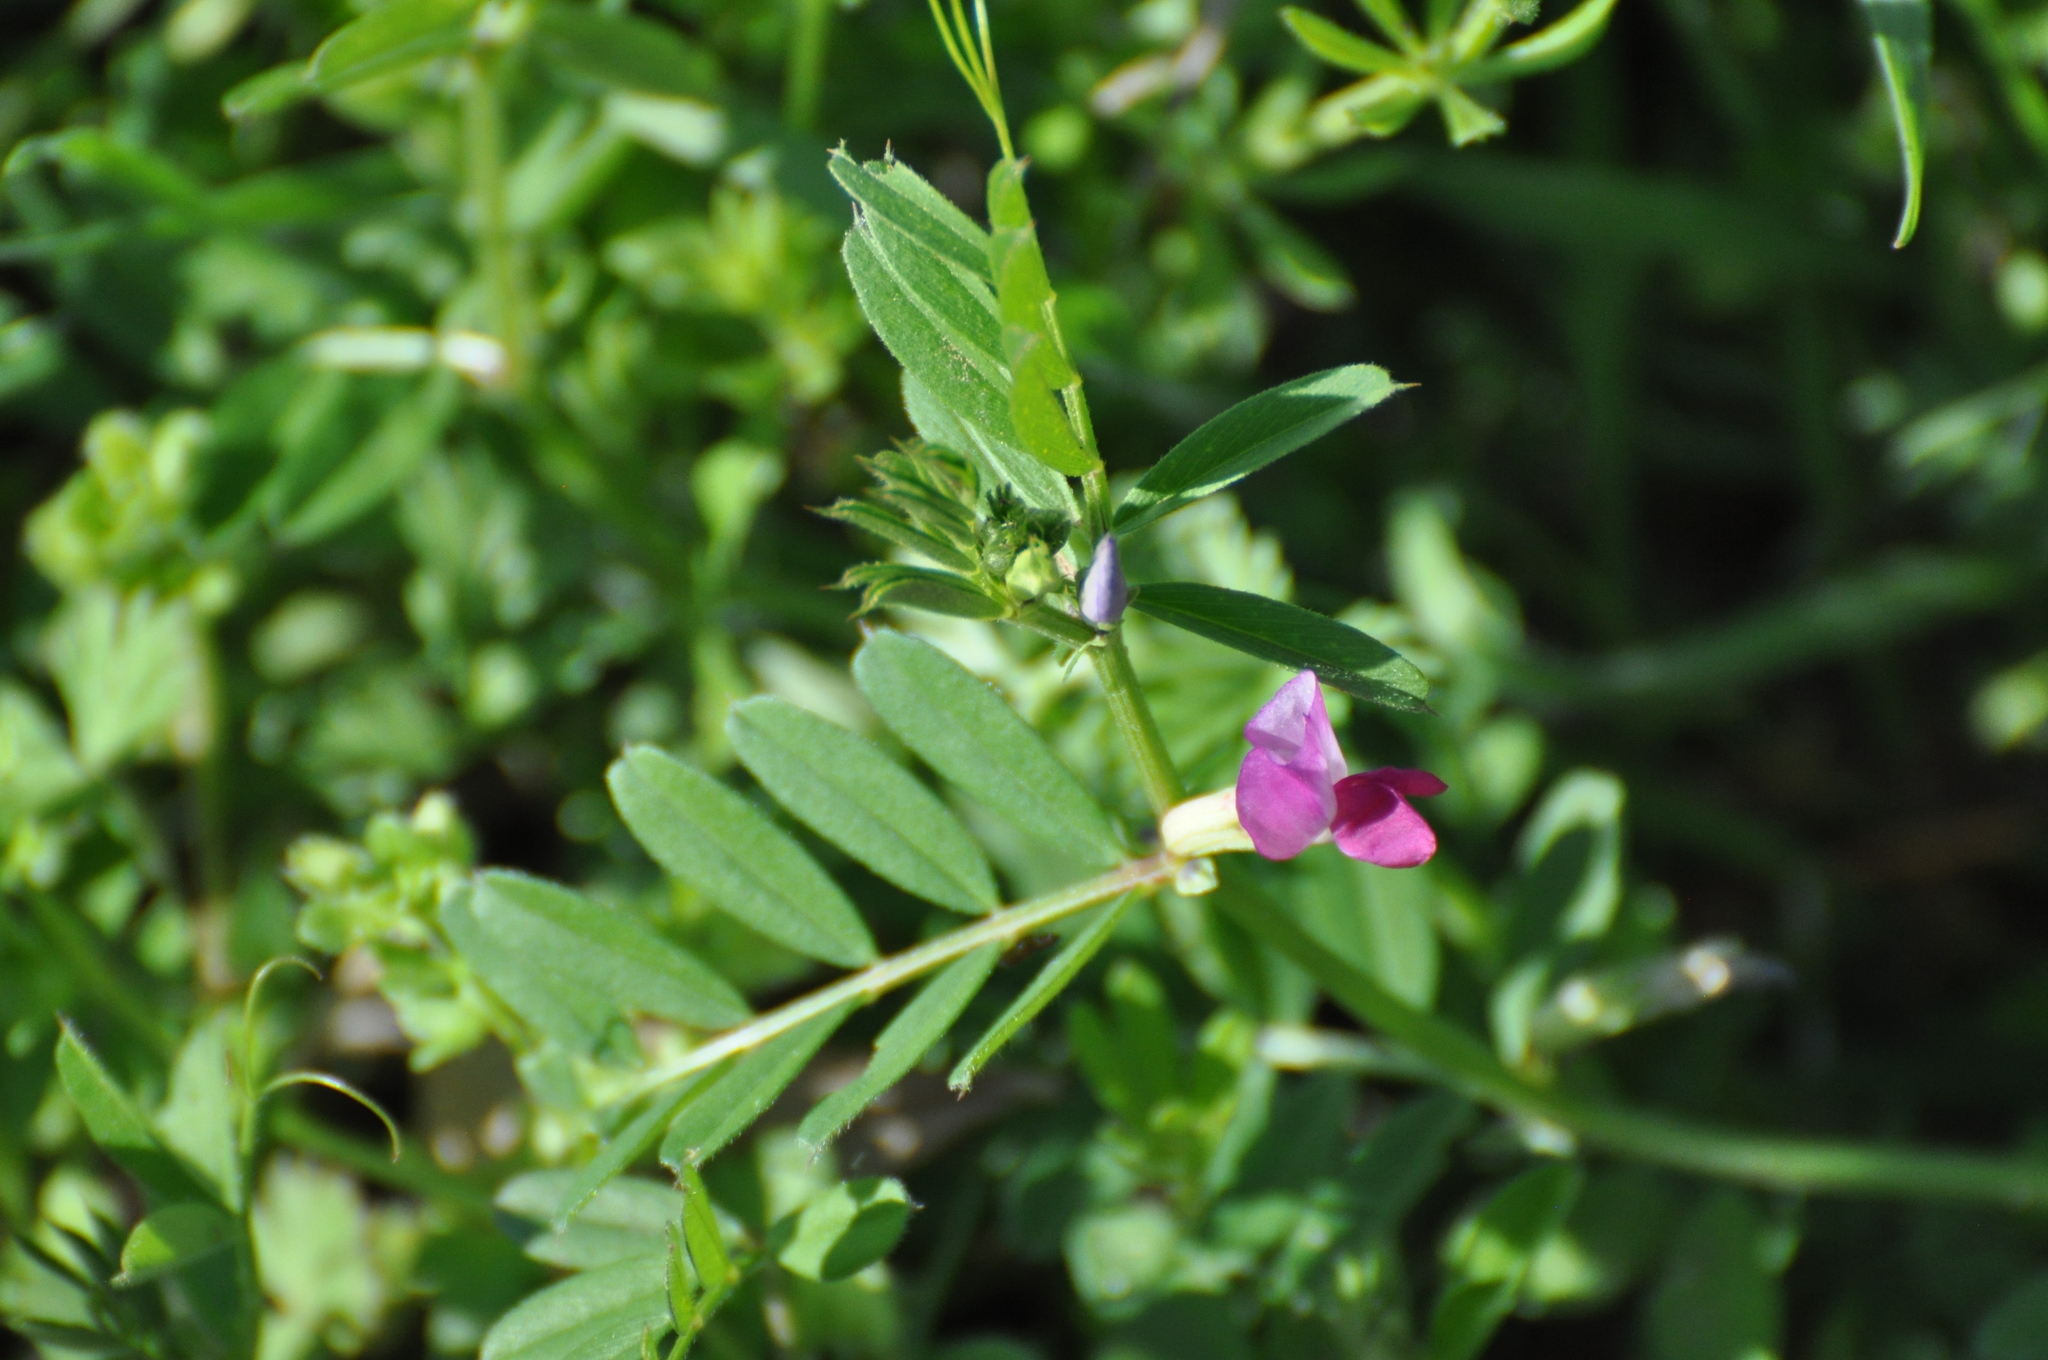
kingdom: Plantae
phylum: Tracheophyta
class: Magnoliopsida
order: Fabales
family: Fabaceae
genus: Vicia
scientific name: Vicia sativa
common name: Garden vetch
